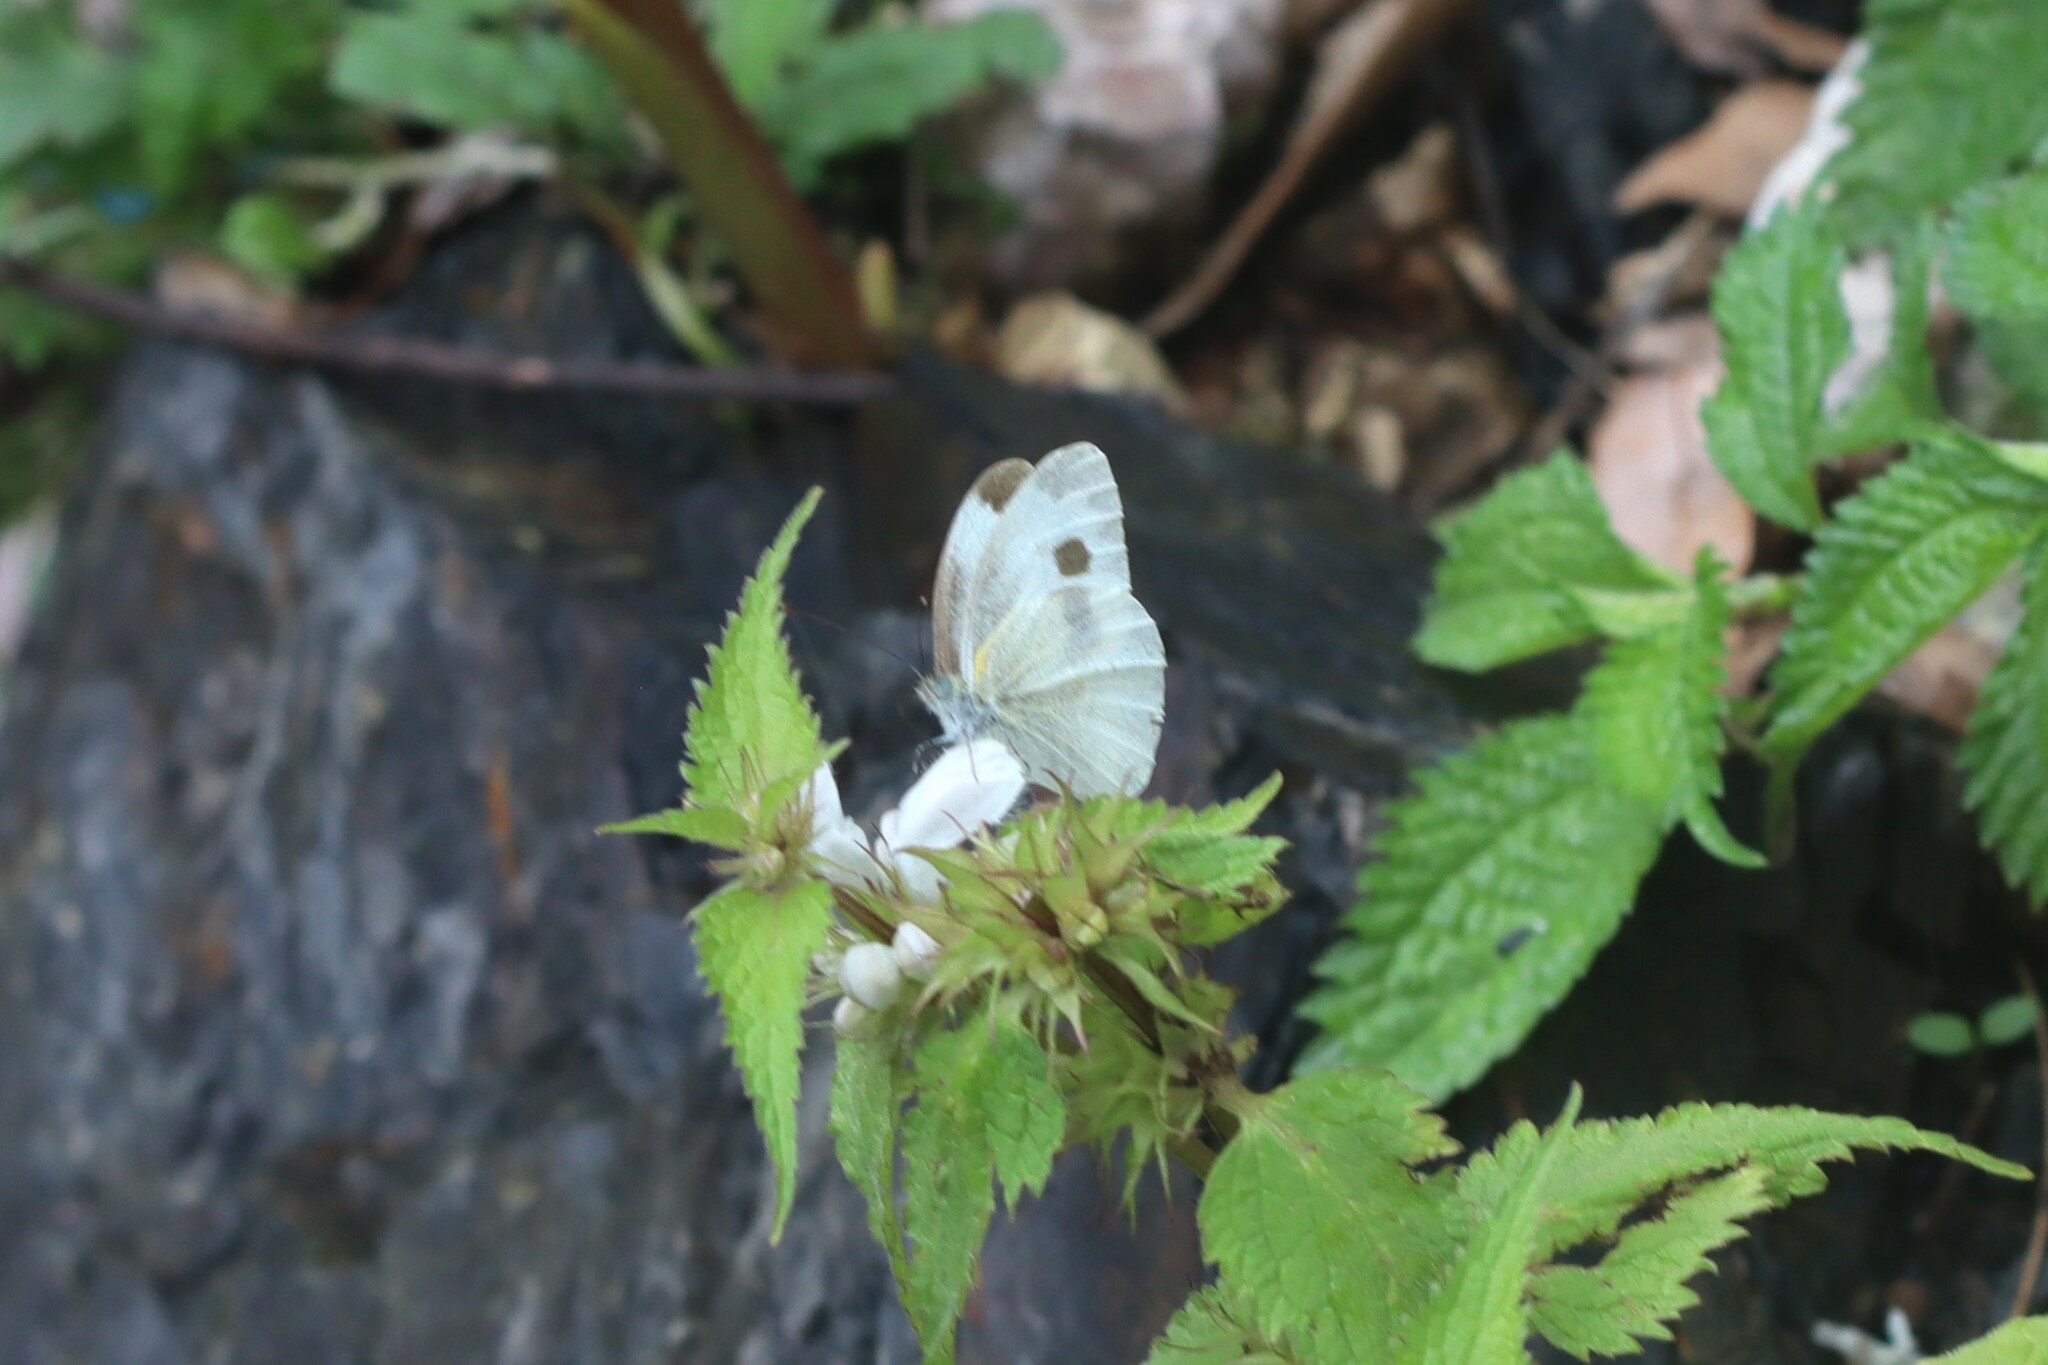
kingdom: Animalia
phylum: Arthropoda
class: Insecta
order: Lepidoptera
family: Pieridae
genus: Pieris
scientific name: Pieris canidia
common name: Indian cabbage white
